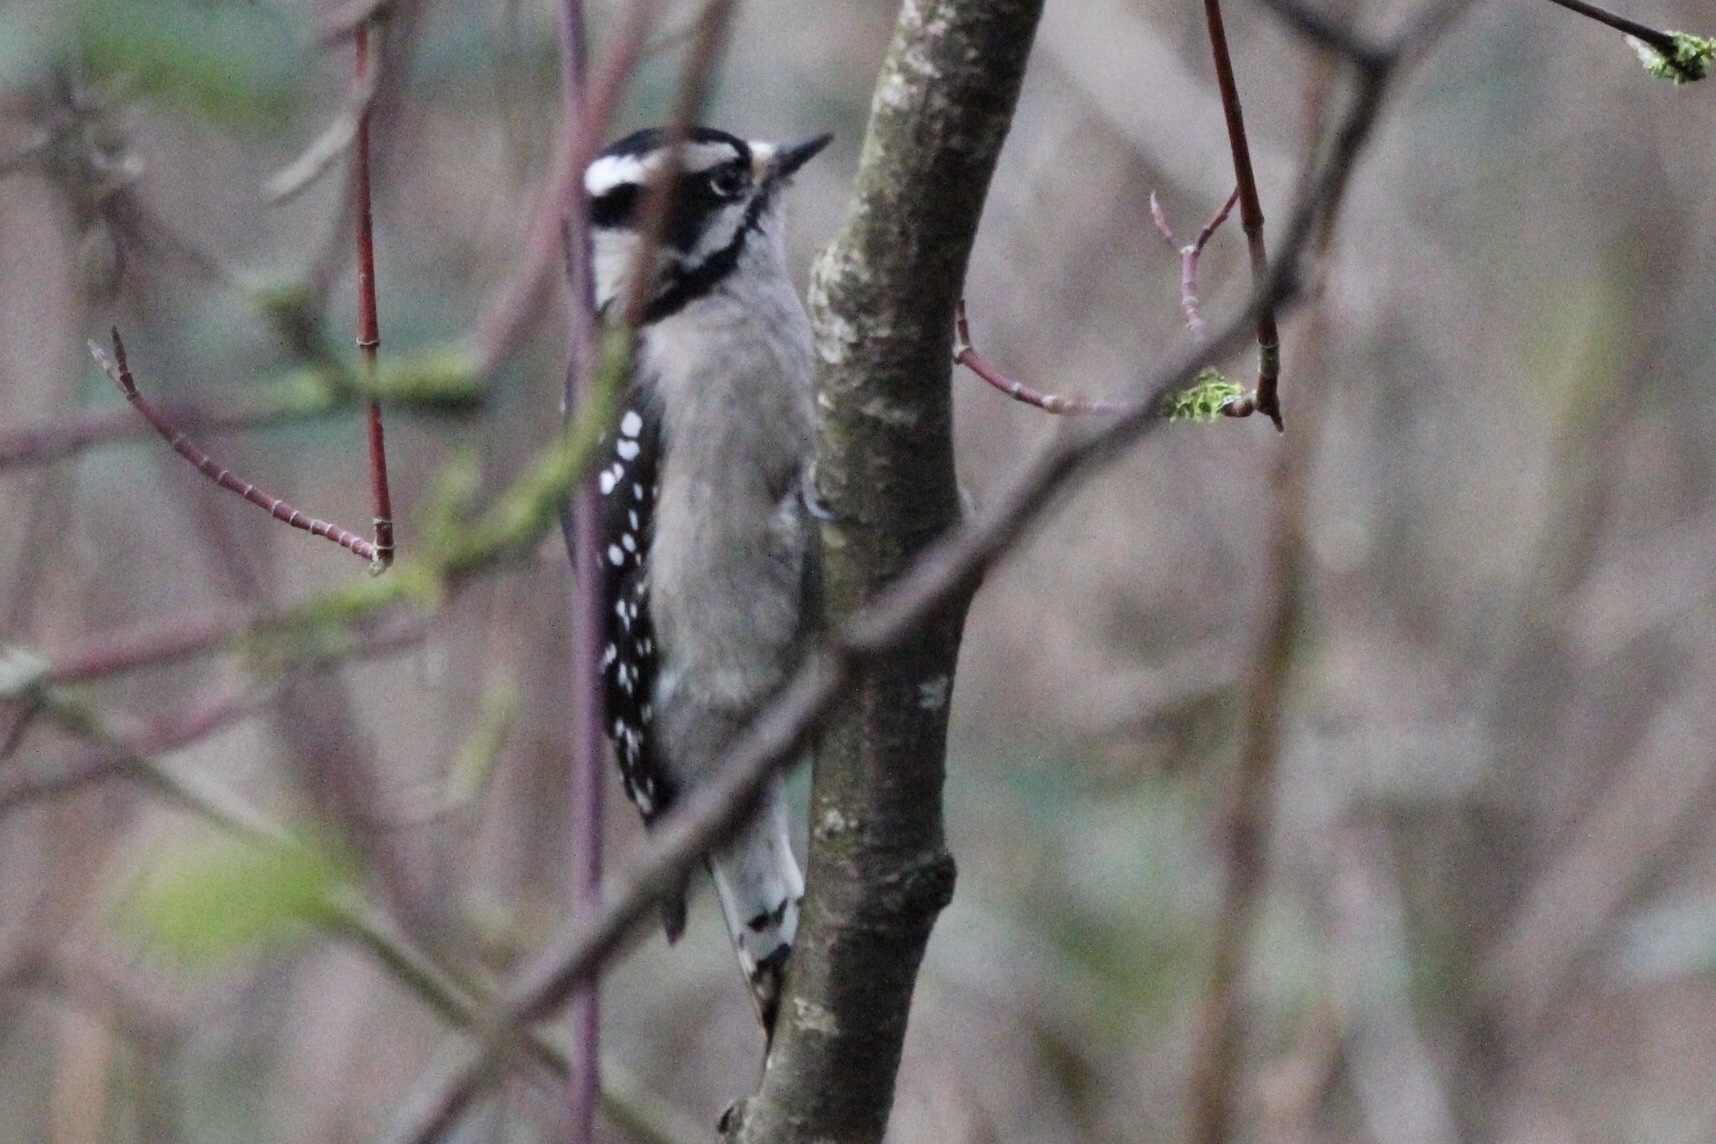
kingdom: Animalia
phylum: Chordata
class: Aves
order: Piciformes
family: Picidae
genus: Dryobates
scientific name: Dryobates pubescens
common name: Downy woodpecker
